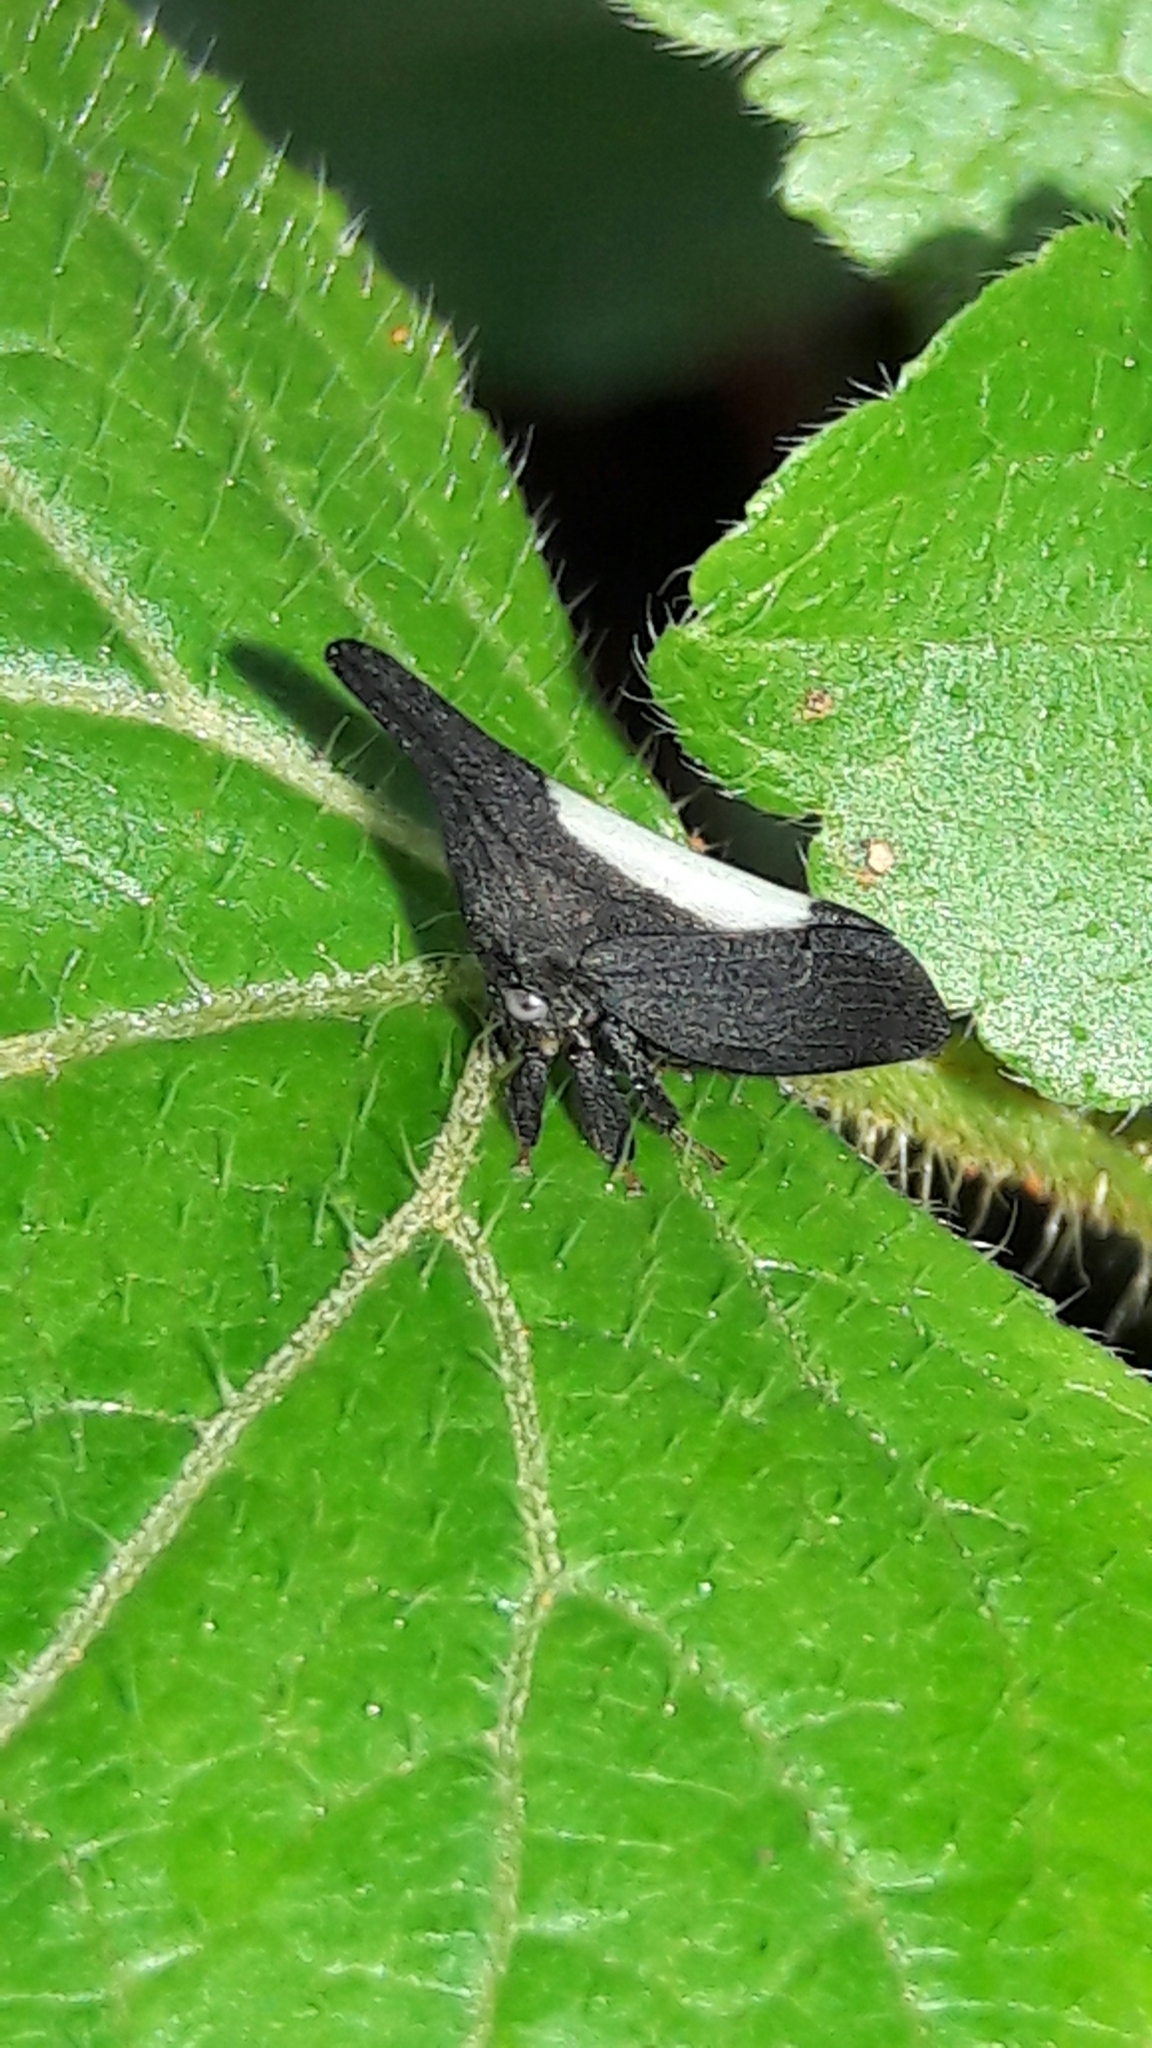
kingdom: Animalia
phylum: Arthropoda
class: Insecta
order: Hemiptera
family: Membracidae
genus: Enchenopa
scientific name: Enchenopa albidorsa
